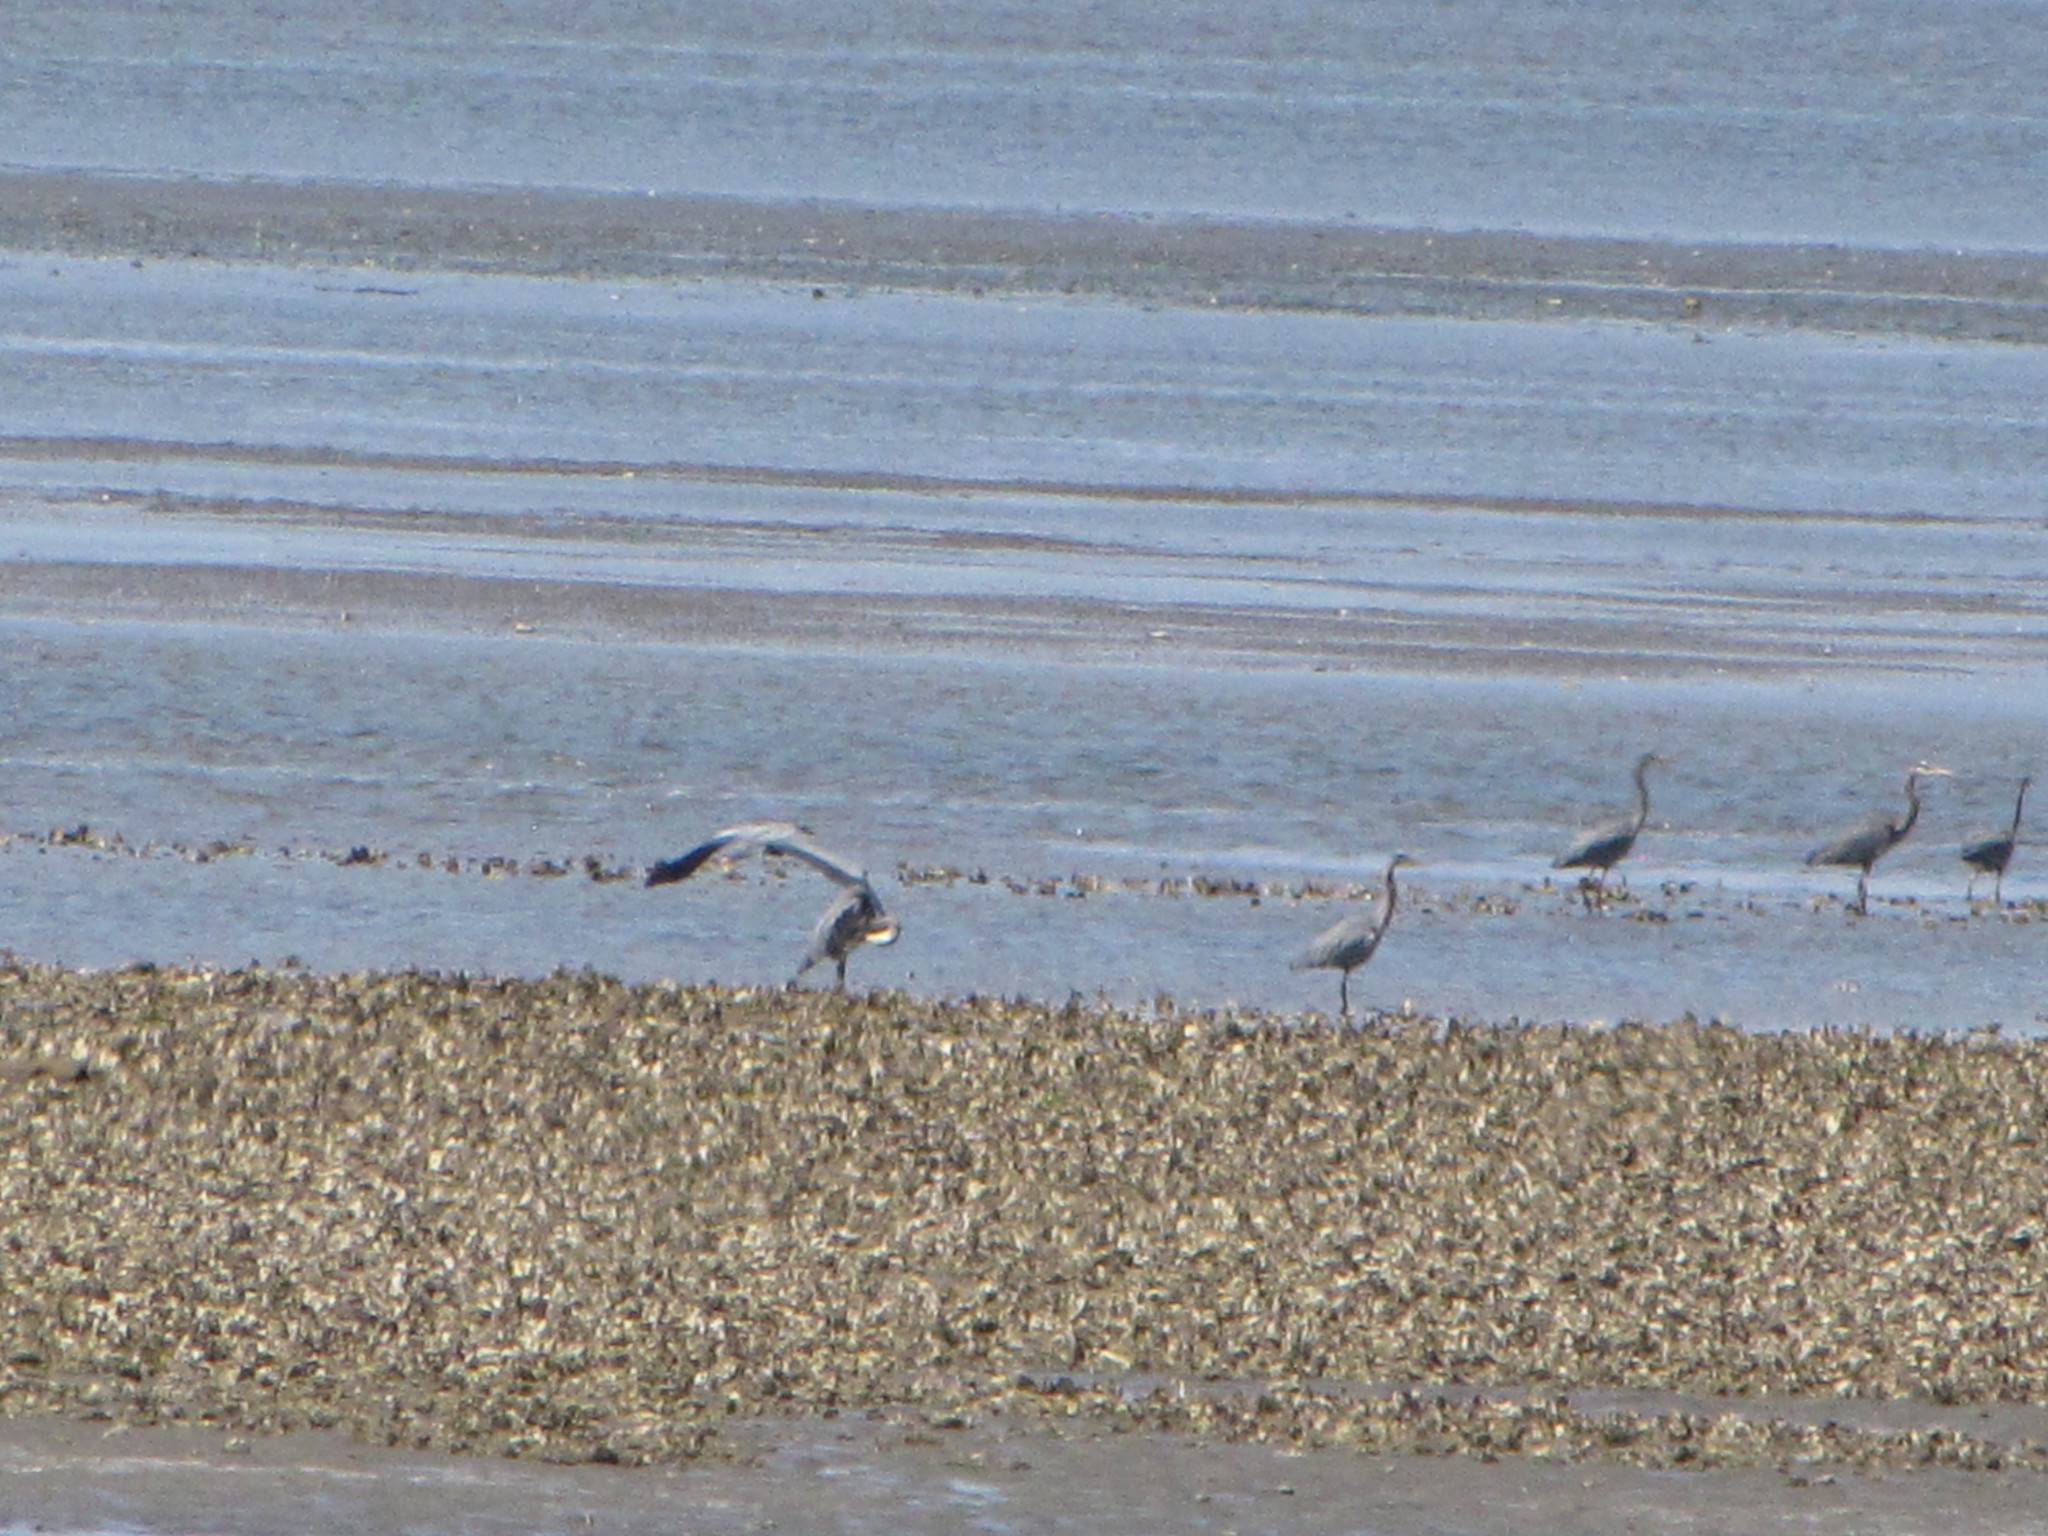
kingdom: Animalia
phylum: Chordata
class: Aves
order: Pelecaniformes
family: Ardeidae
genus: Ardea
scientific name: Ardea herodias
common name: Great blue heron
